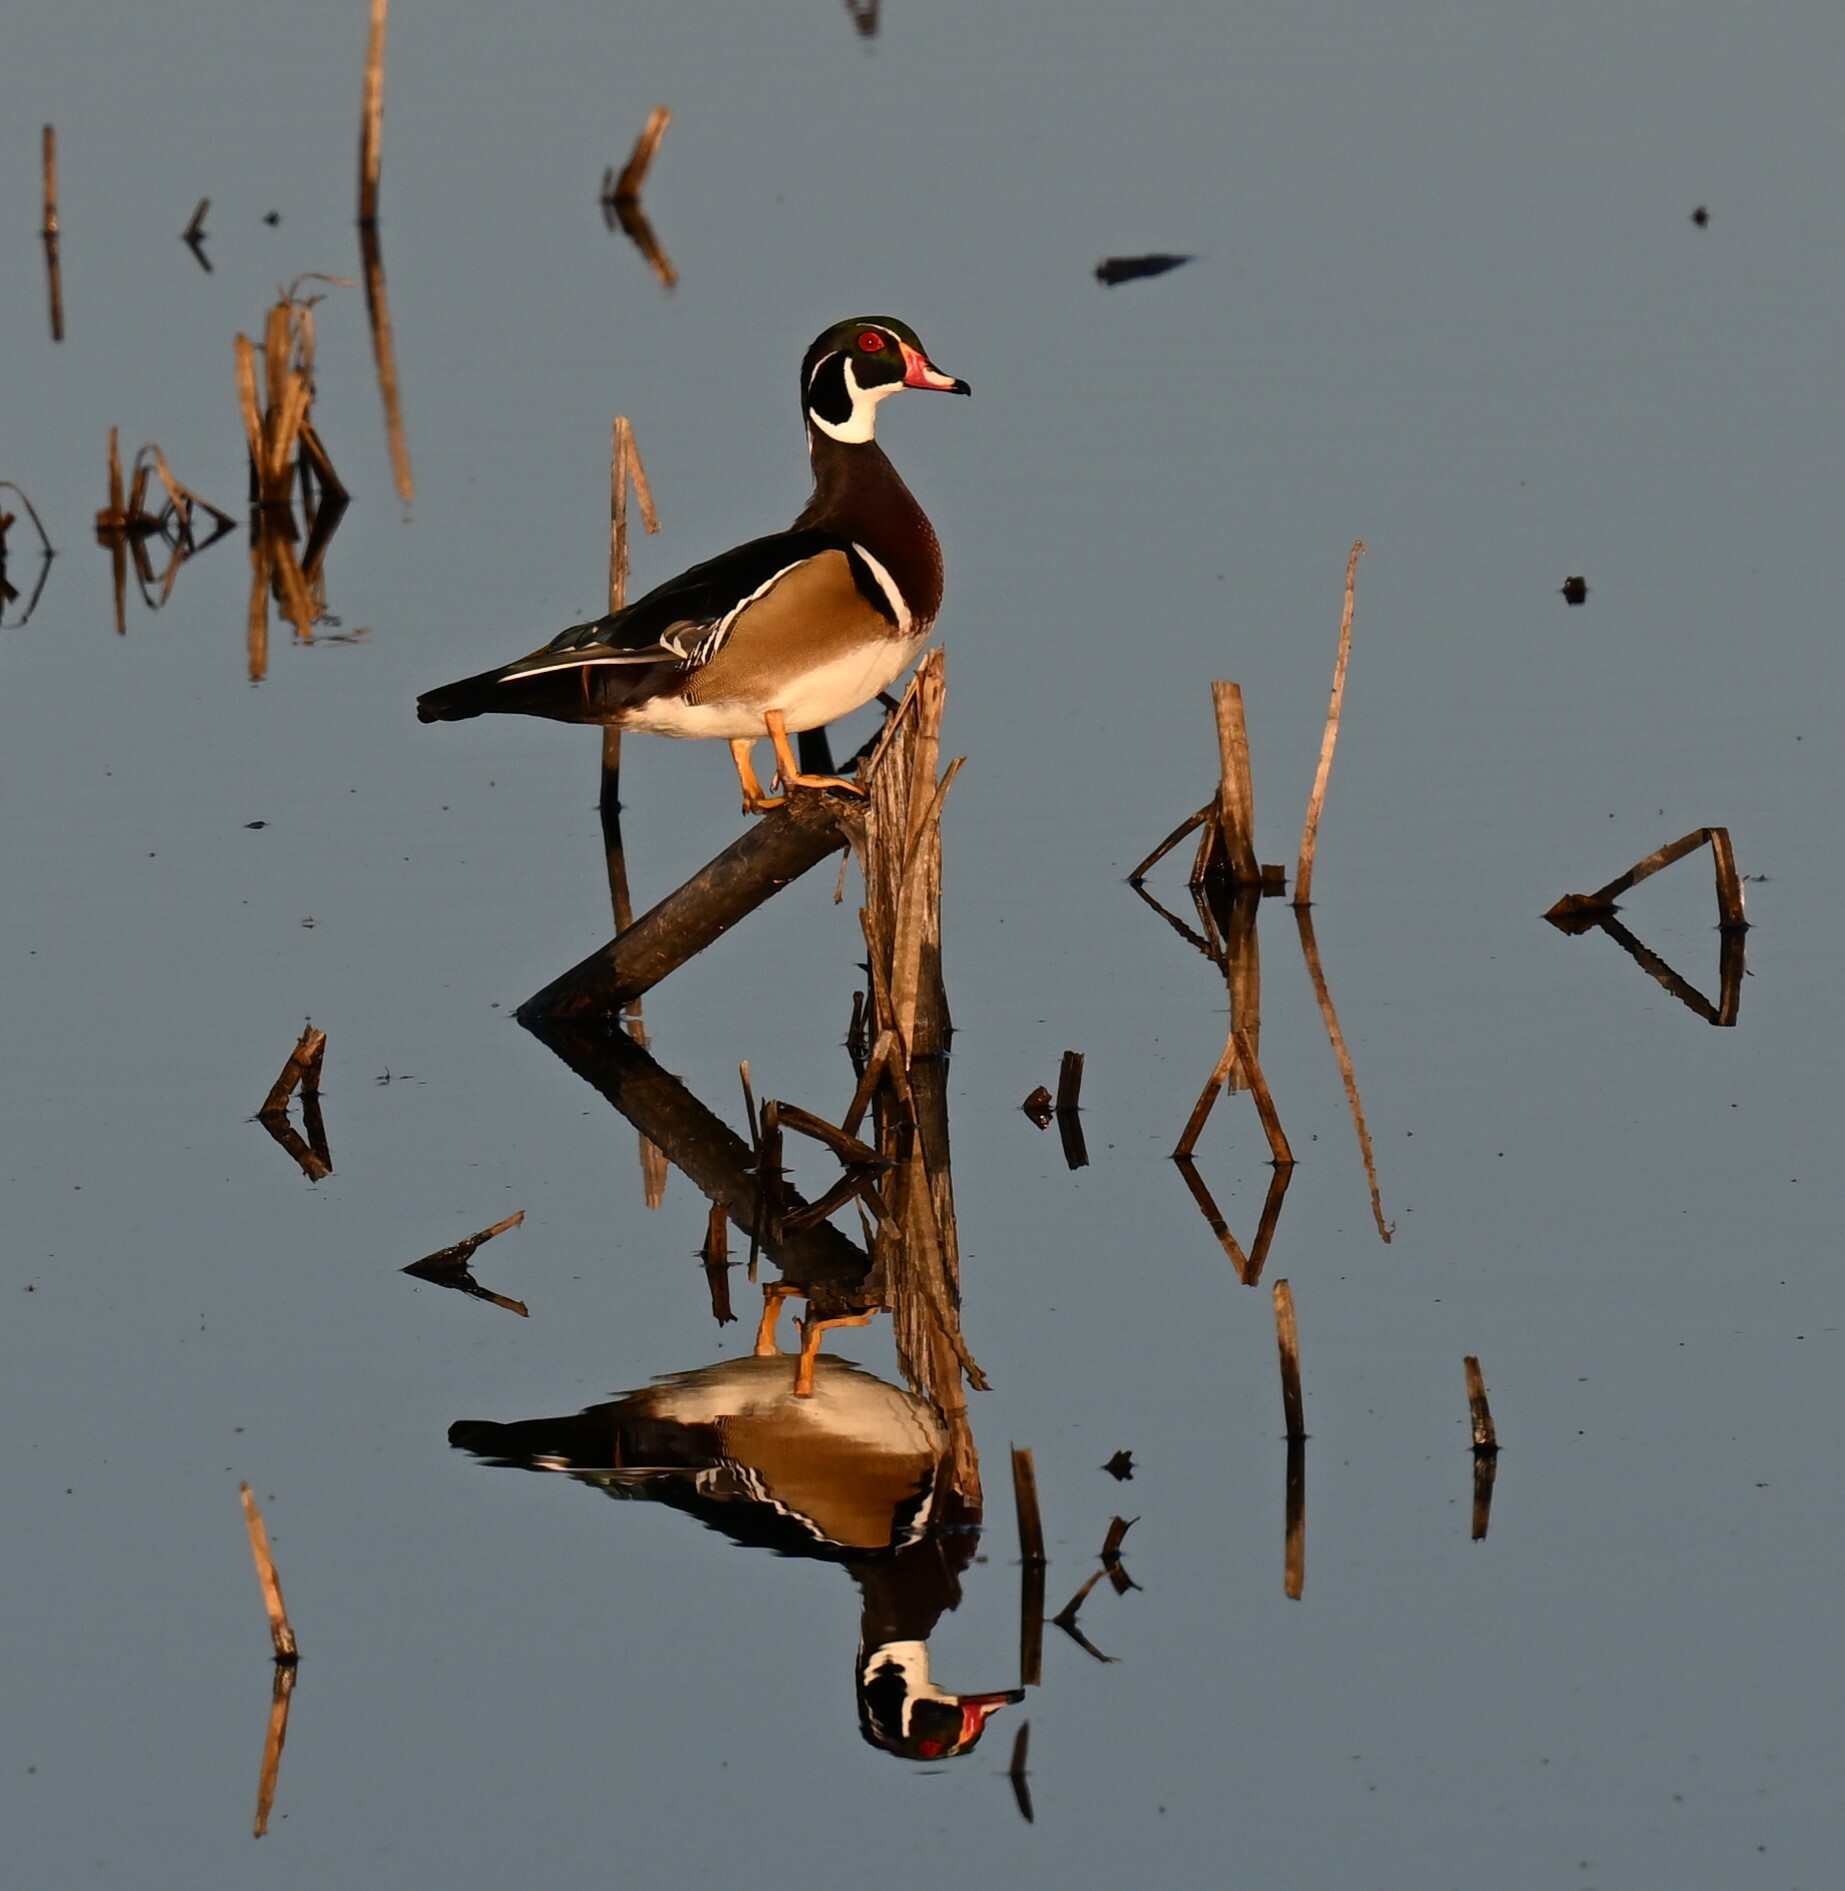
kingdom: Animalia
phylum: Chordata
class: Aves
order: Anseriformes
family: Anatidae
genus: Aix
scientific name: Aix sponsa
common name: Wood duck
